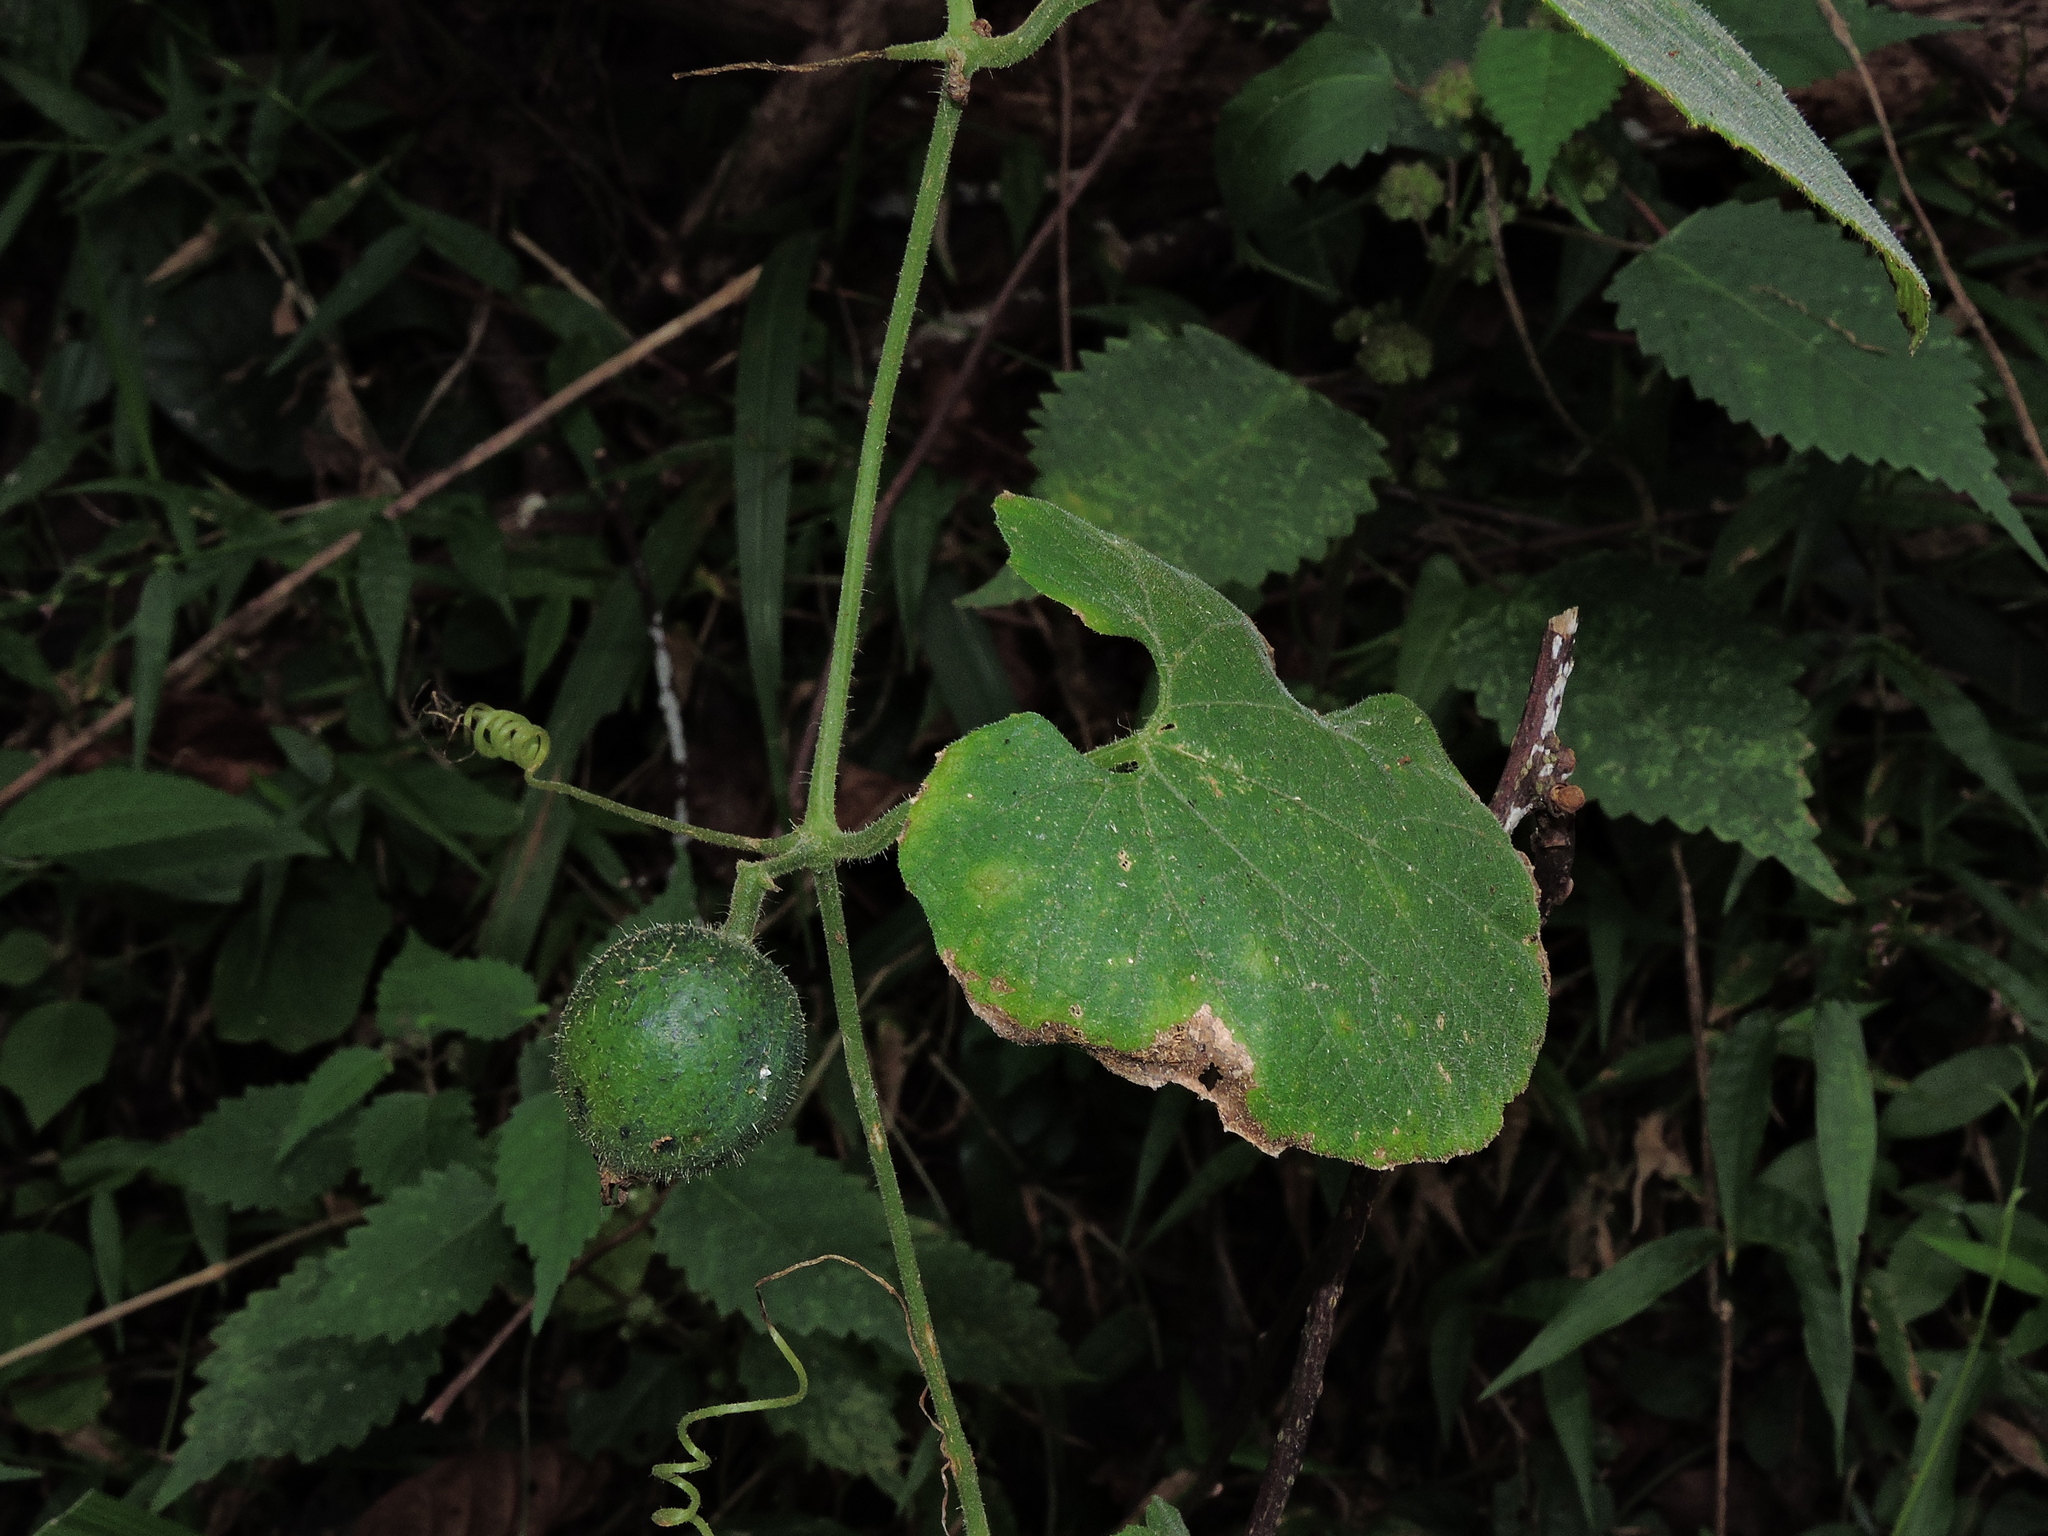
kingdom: Plantae
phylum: Tracheophyta
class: Magnoliopsida
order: Cucurbitales
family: Cucurbitaceae
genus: Thladiantha
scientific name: Thladiantha nudiflora
